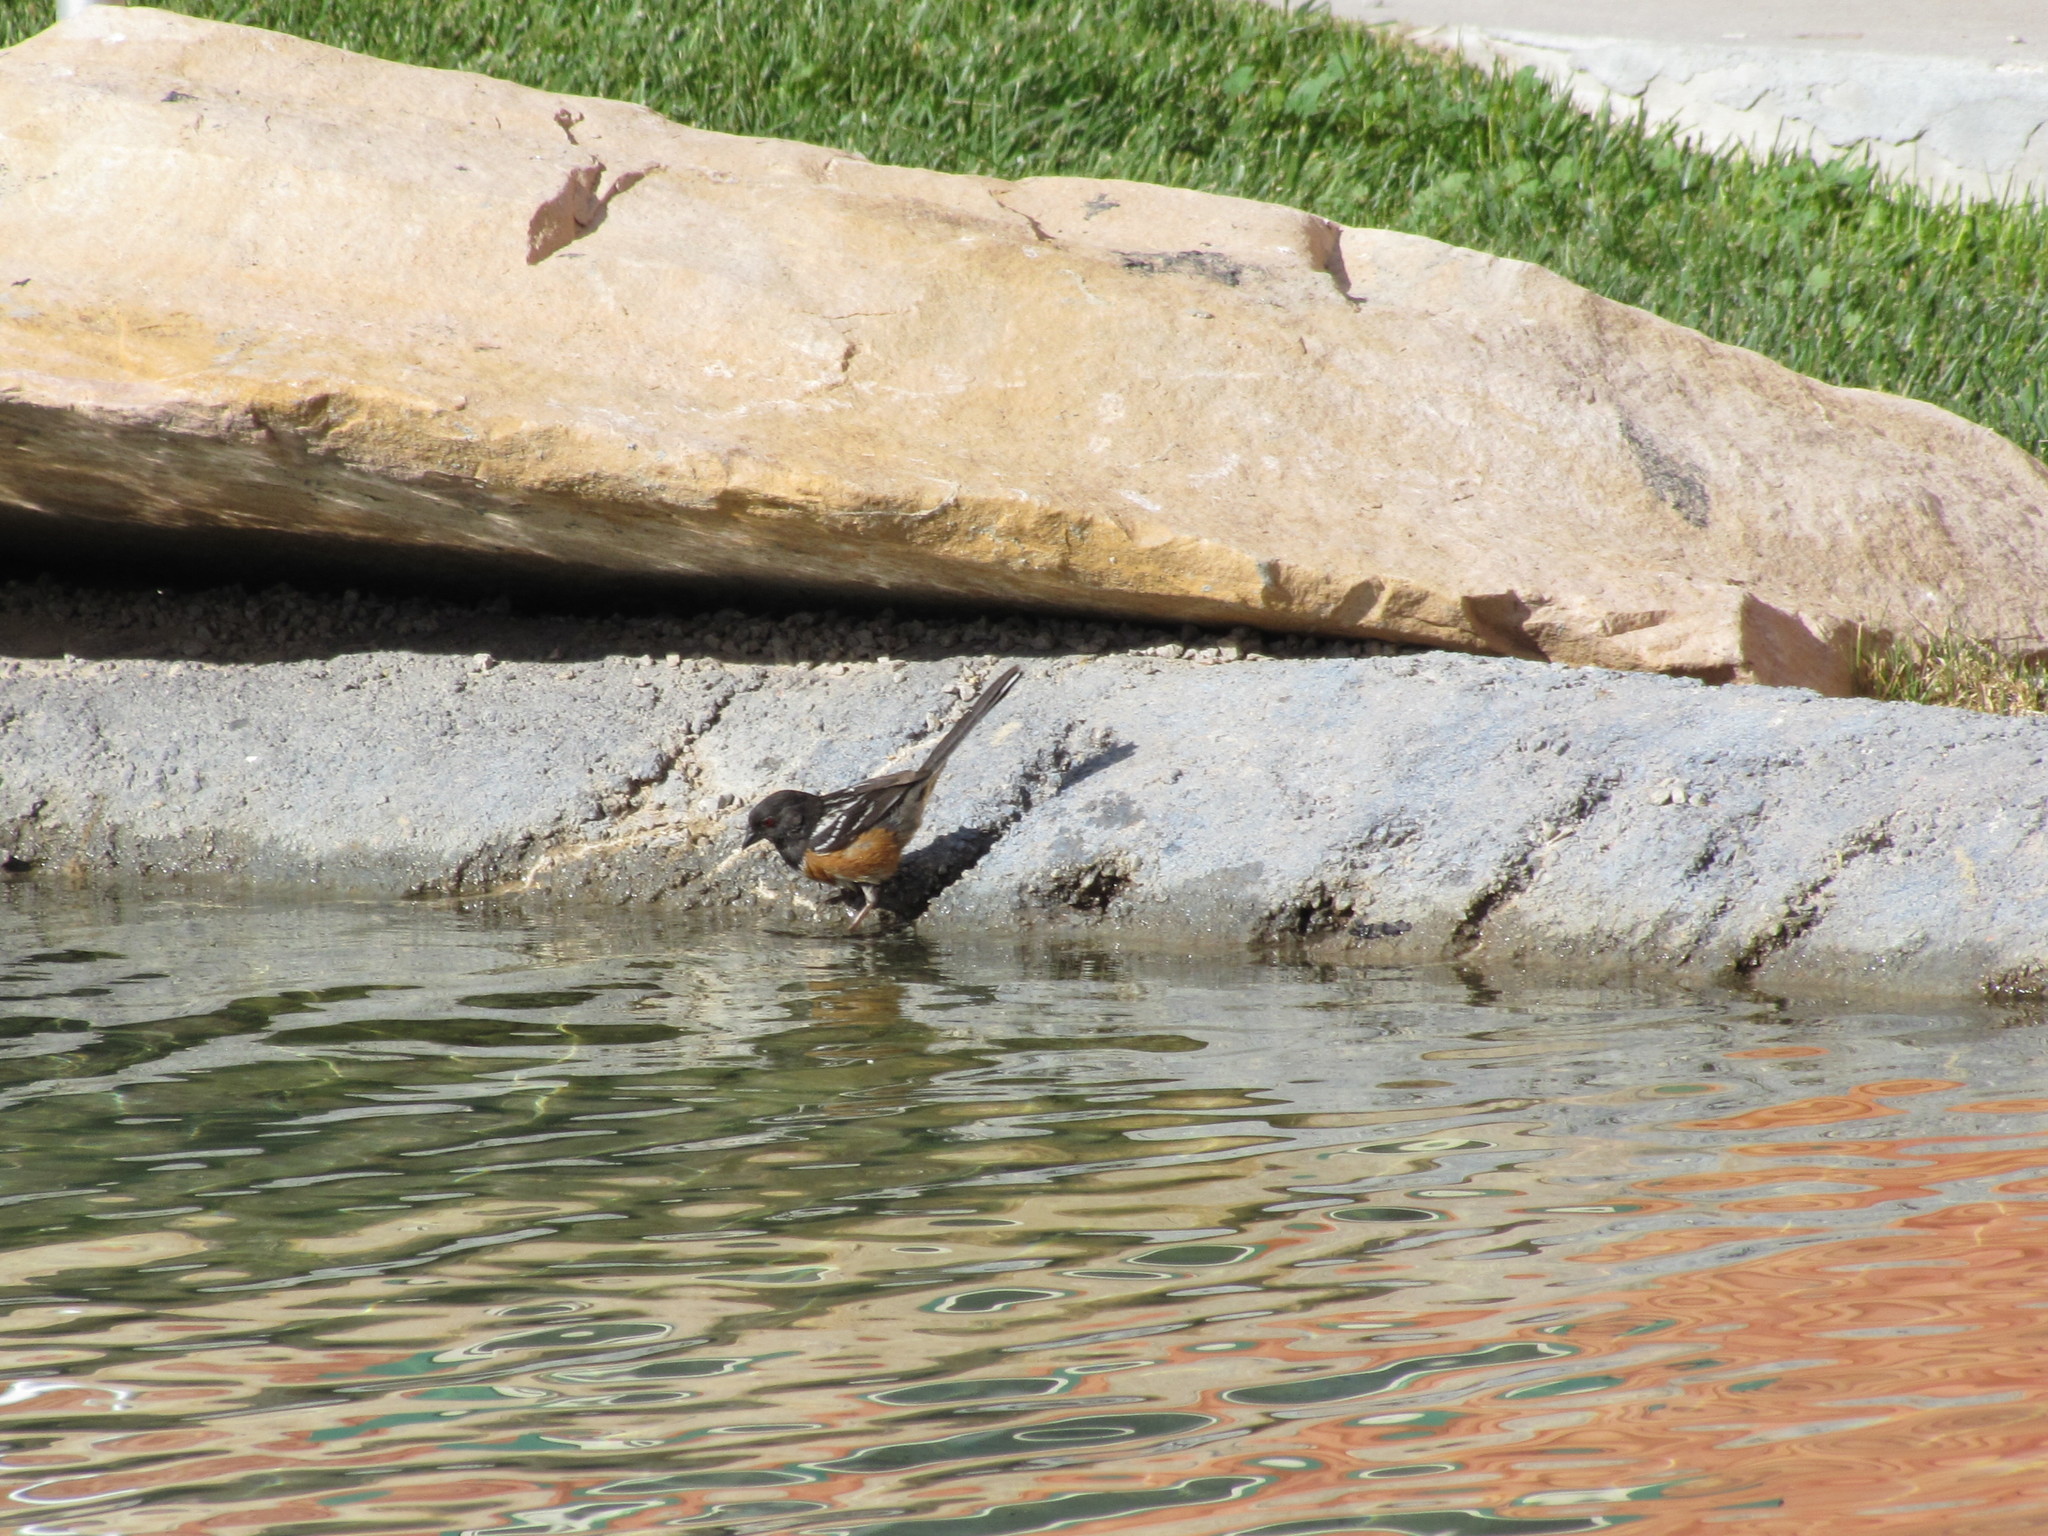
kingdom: Animalia
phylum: Chordata
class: Aves
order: Passeriformes
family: Passerellidae
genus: Pipilo
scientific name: Pipilo maculatus
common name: Spotted towhee
